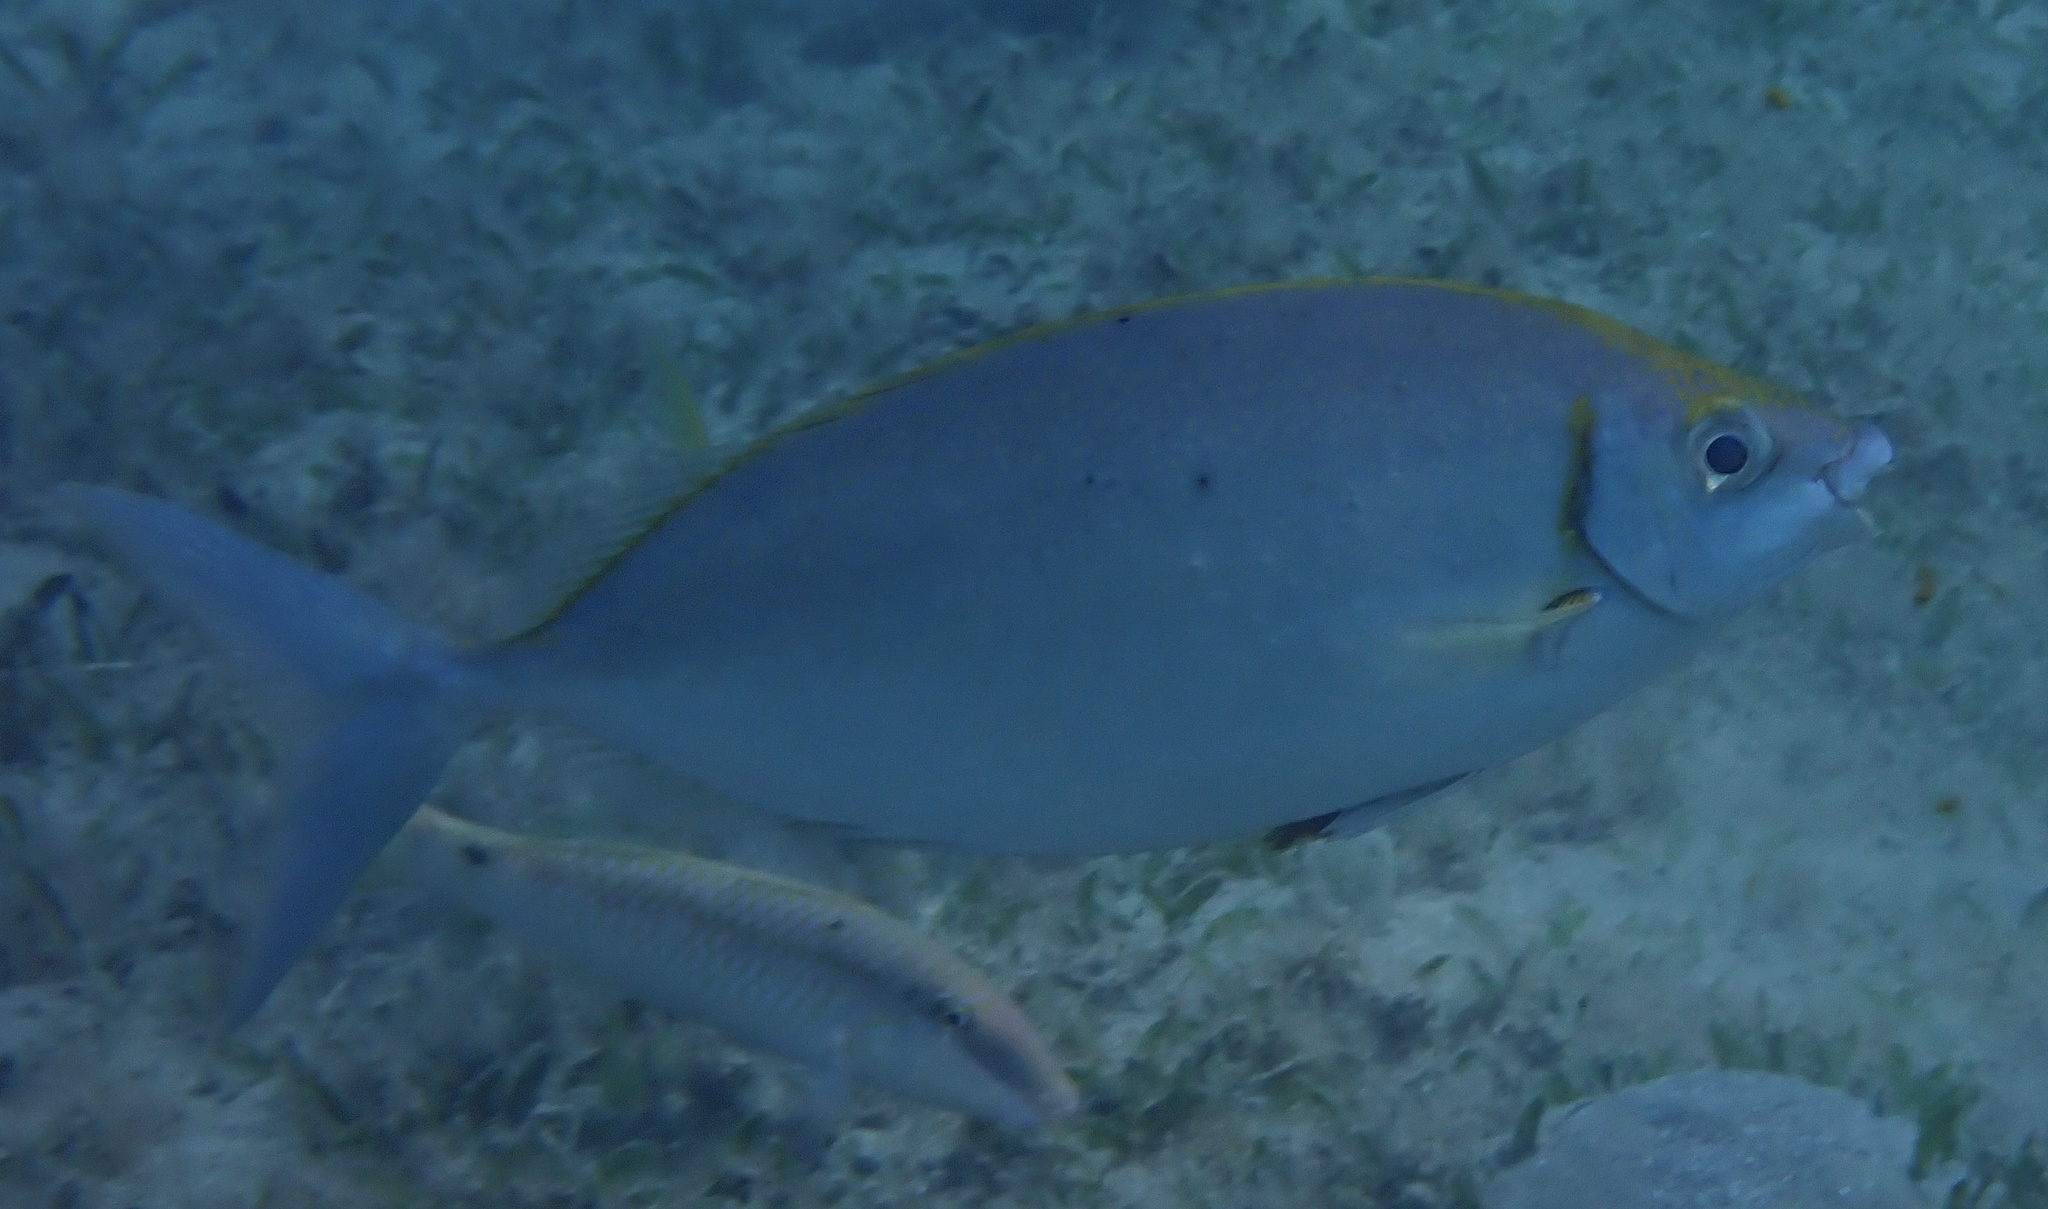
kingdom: Animalia
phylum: Chordata
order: Perciformes
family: Siganidae
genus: Siganus
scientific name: Siganus argenteus
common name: Forktail rabbitfish
